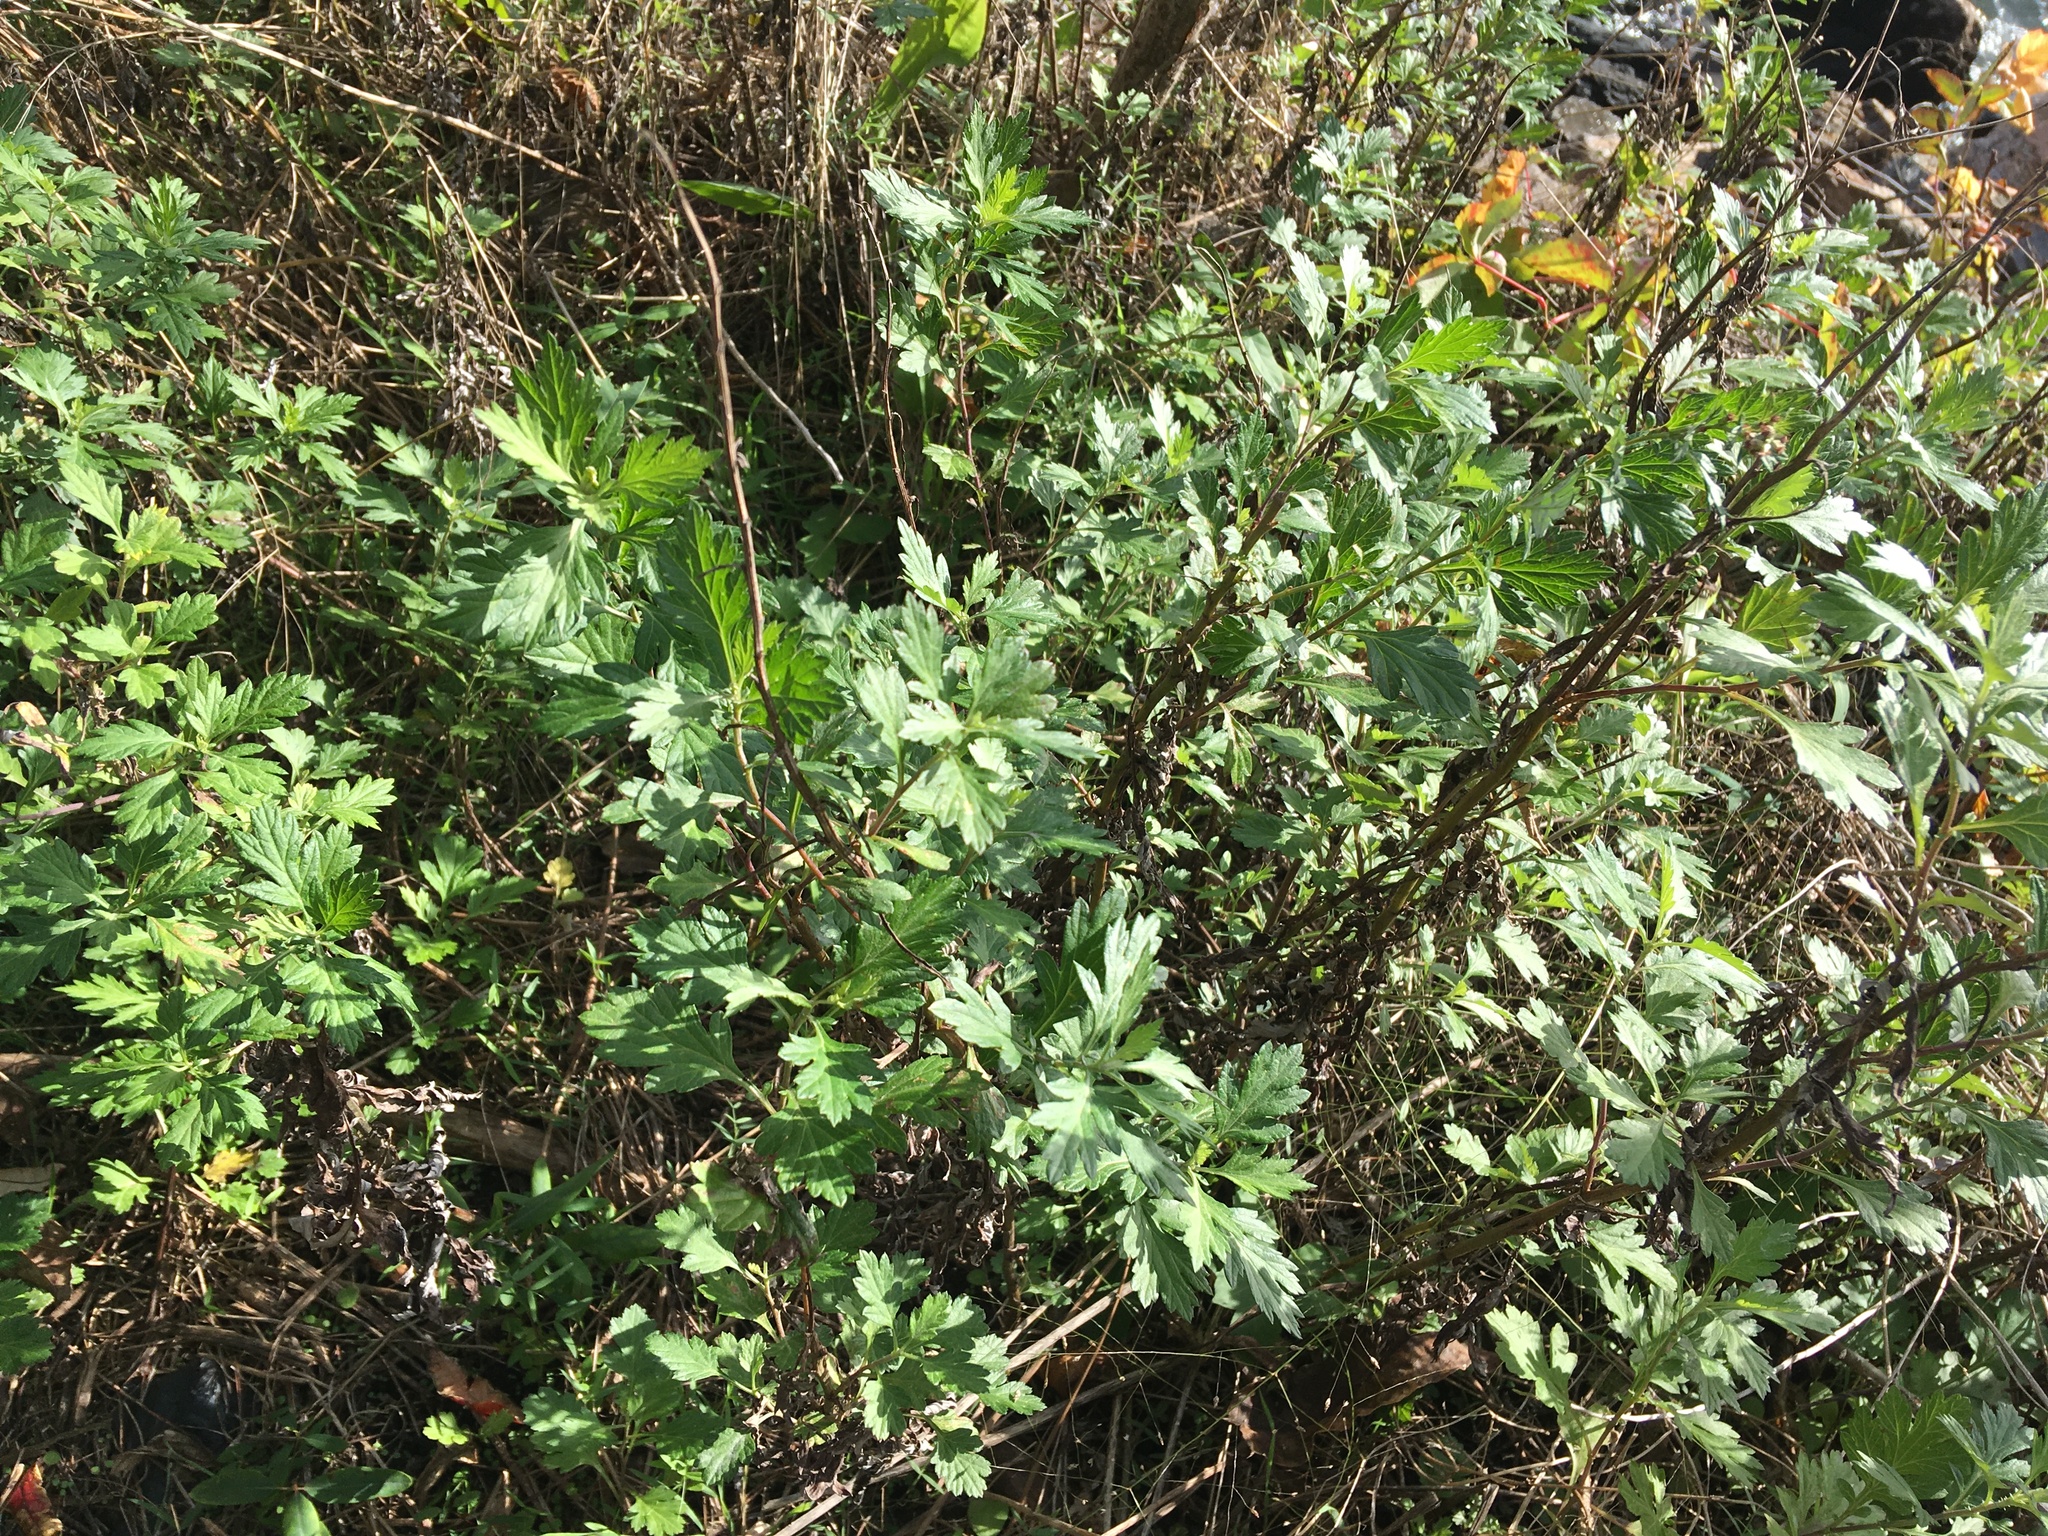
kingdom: Plantae
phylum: Tracheophyta
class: Magnoliopsida
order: Asterales
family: Asteraceae
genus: Artemisia
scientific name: Artemisia vulgaris
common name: Mugwort
